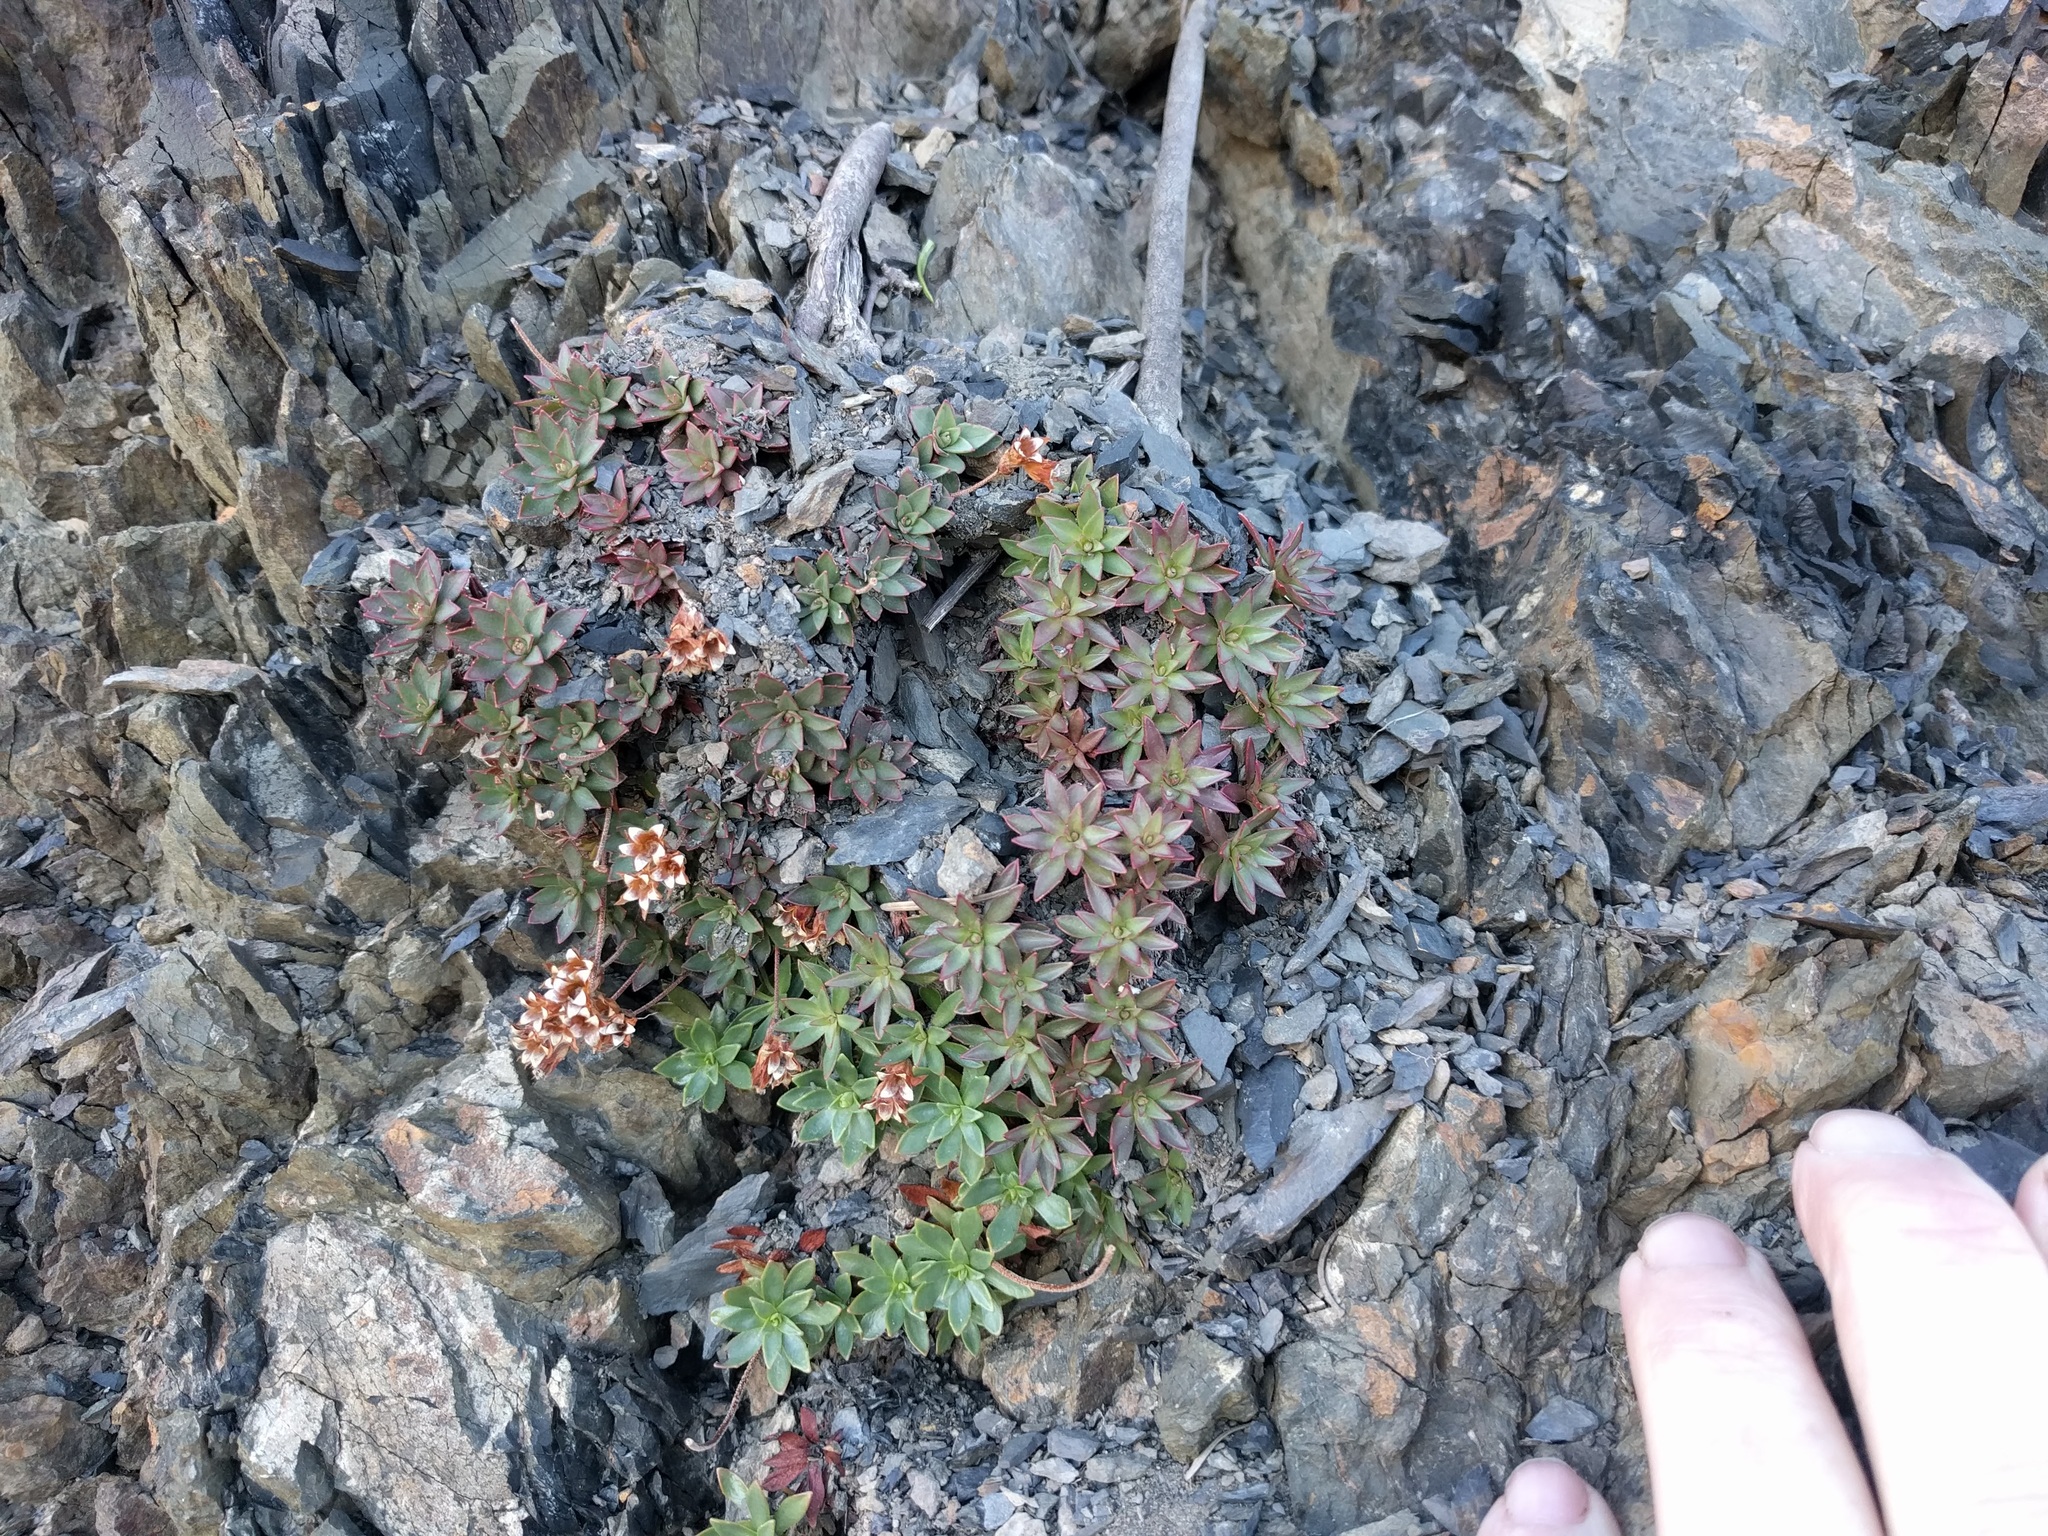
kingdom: Plantae
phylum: Tracheophyta
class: Magnoliopsida
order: Ericales
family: Primulaceae
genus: Androsace
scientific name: Androsace laevigata
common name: Cliff dwarf-primrose
